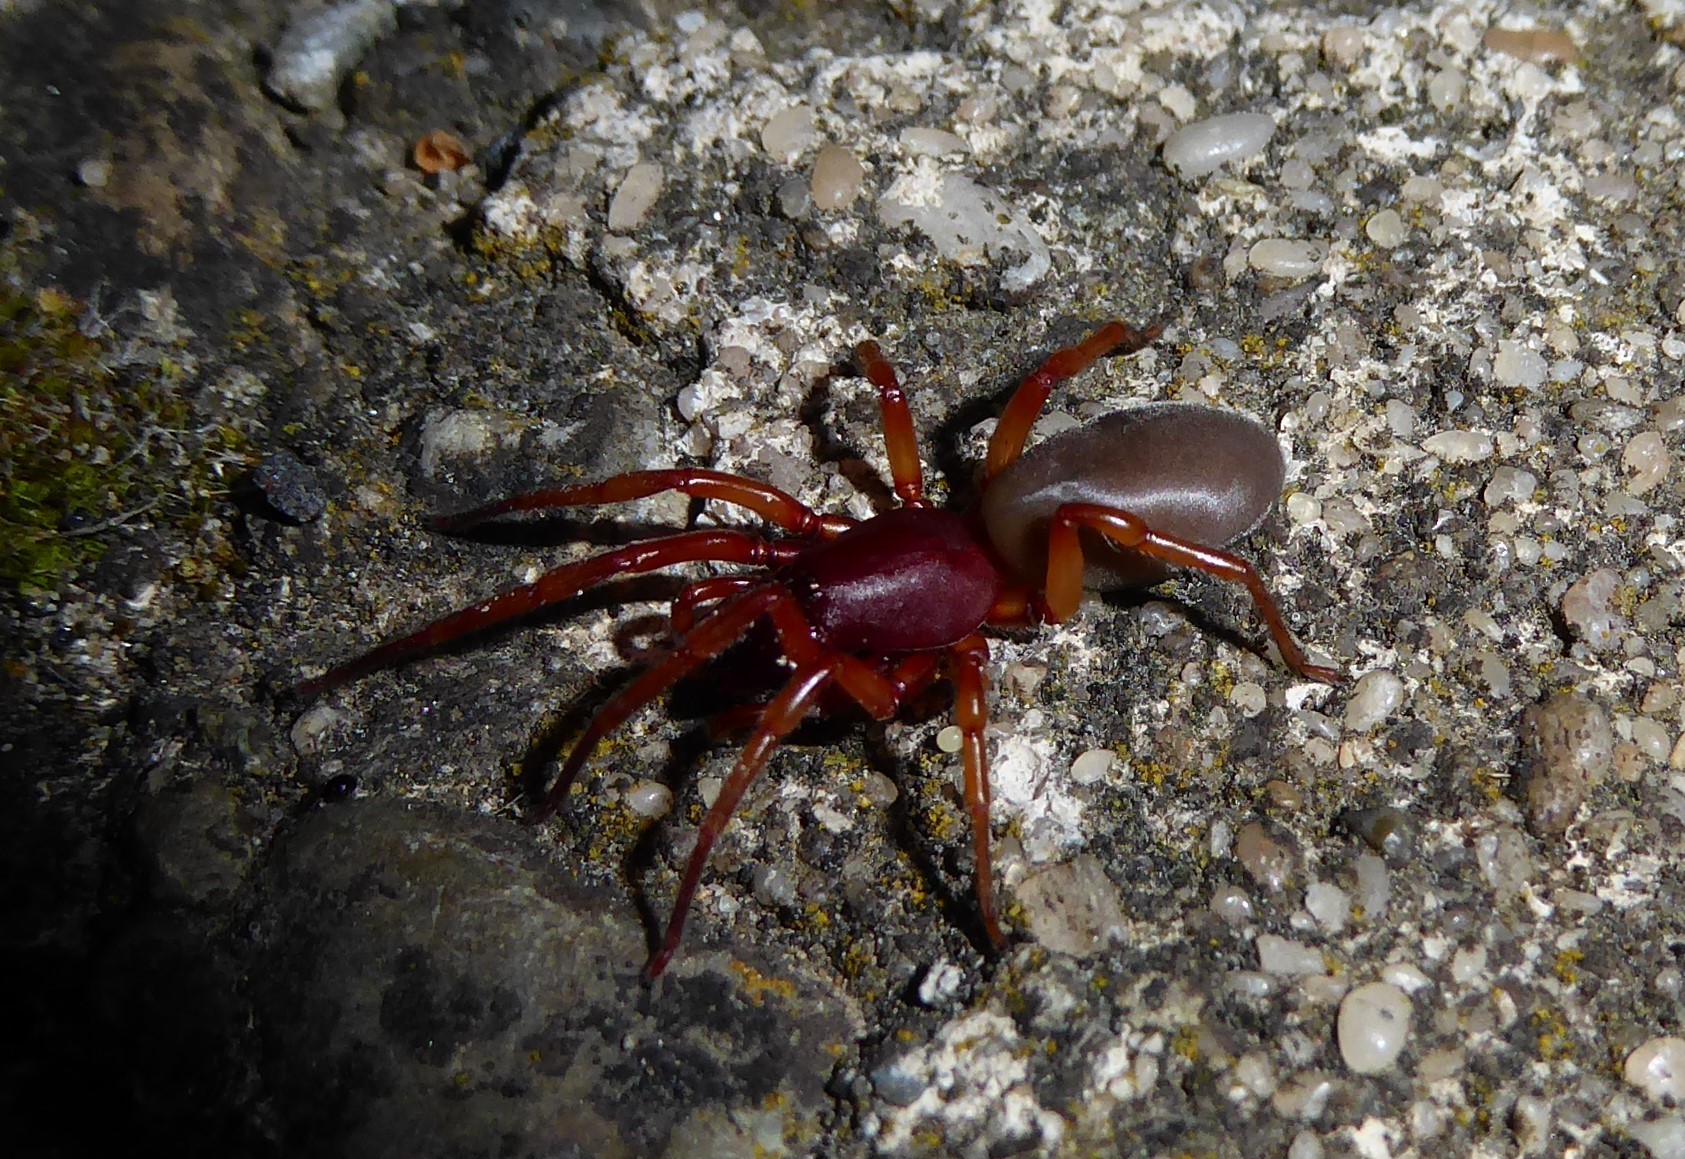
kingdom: Animalia
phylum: Arthropoda
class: Arachnida
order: Araneae
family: Dysderidae
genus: Dysdera
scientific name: Dysdera crocata
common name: Woodlouse spider
